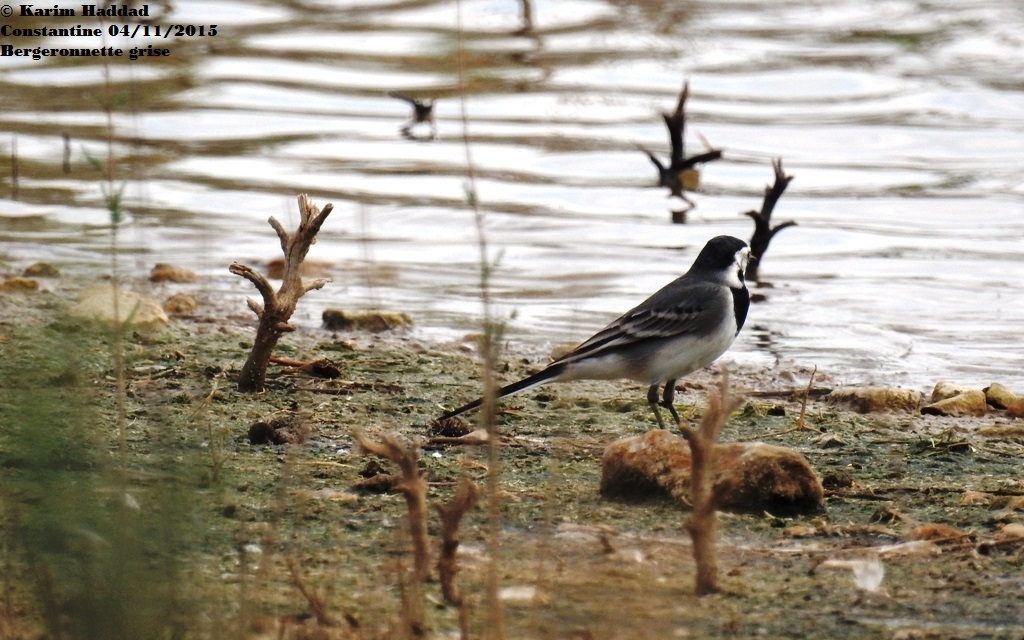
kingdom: Animalia
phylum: Chordata
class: Aves
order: Passeriformes
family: Motacillidae
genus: Motacilla
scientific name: Motacilla alba
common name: White wagtail
